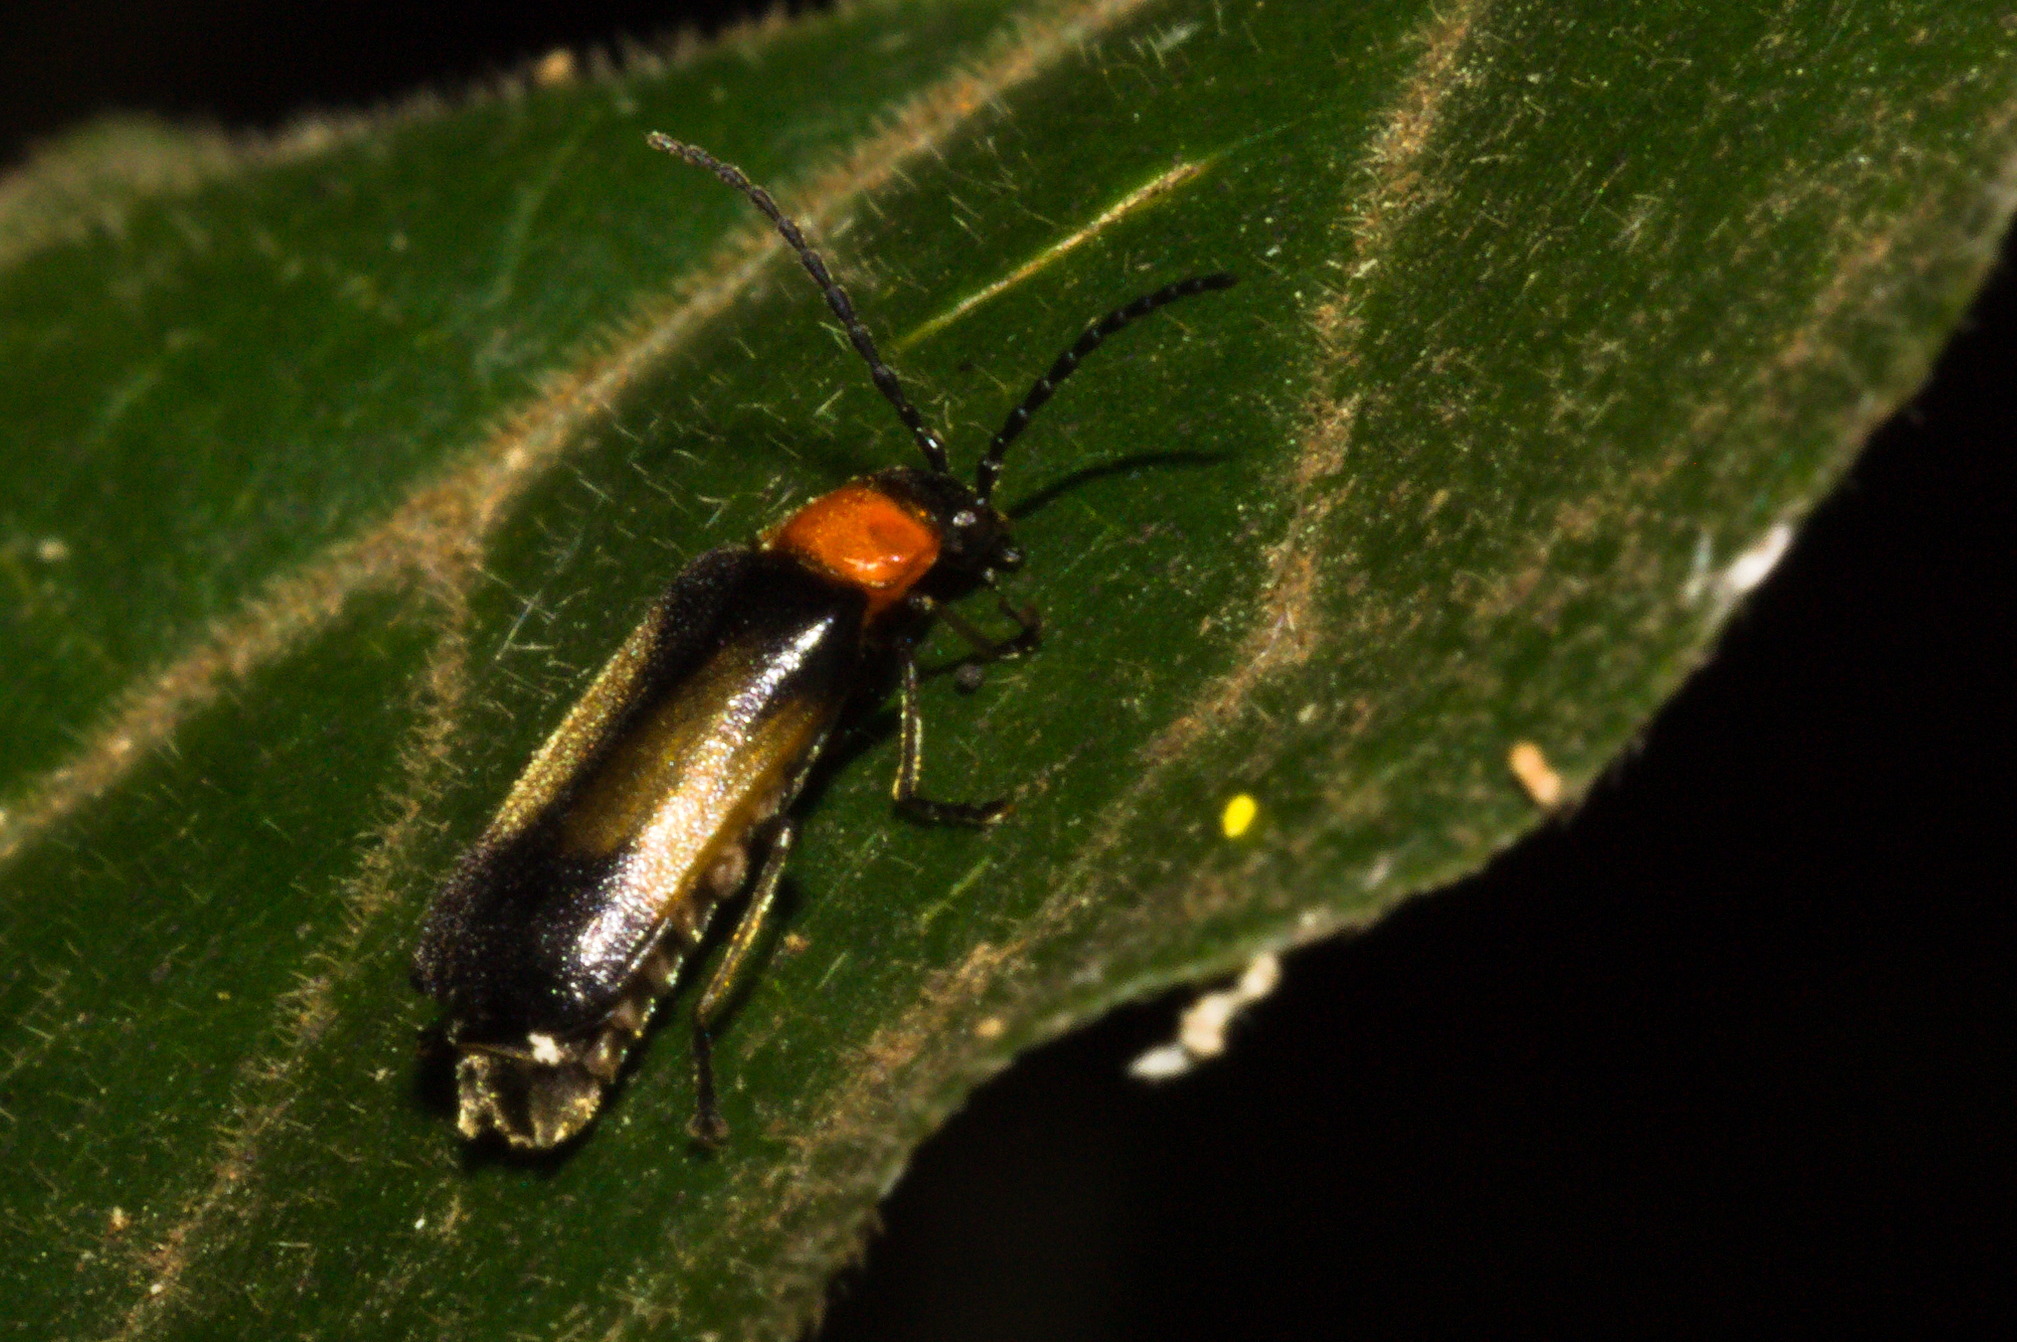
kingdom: Animalia
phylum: Arthropoda
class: Insecta
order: Coleoptera
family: Cantharidae
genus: Silis
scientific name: Silis
